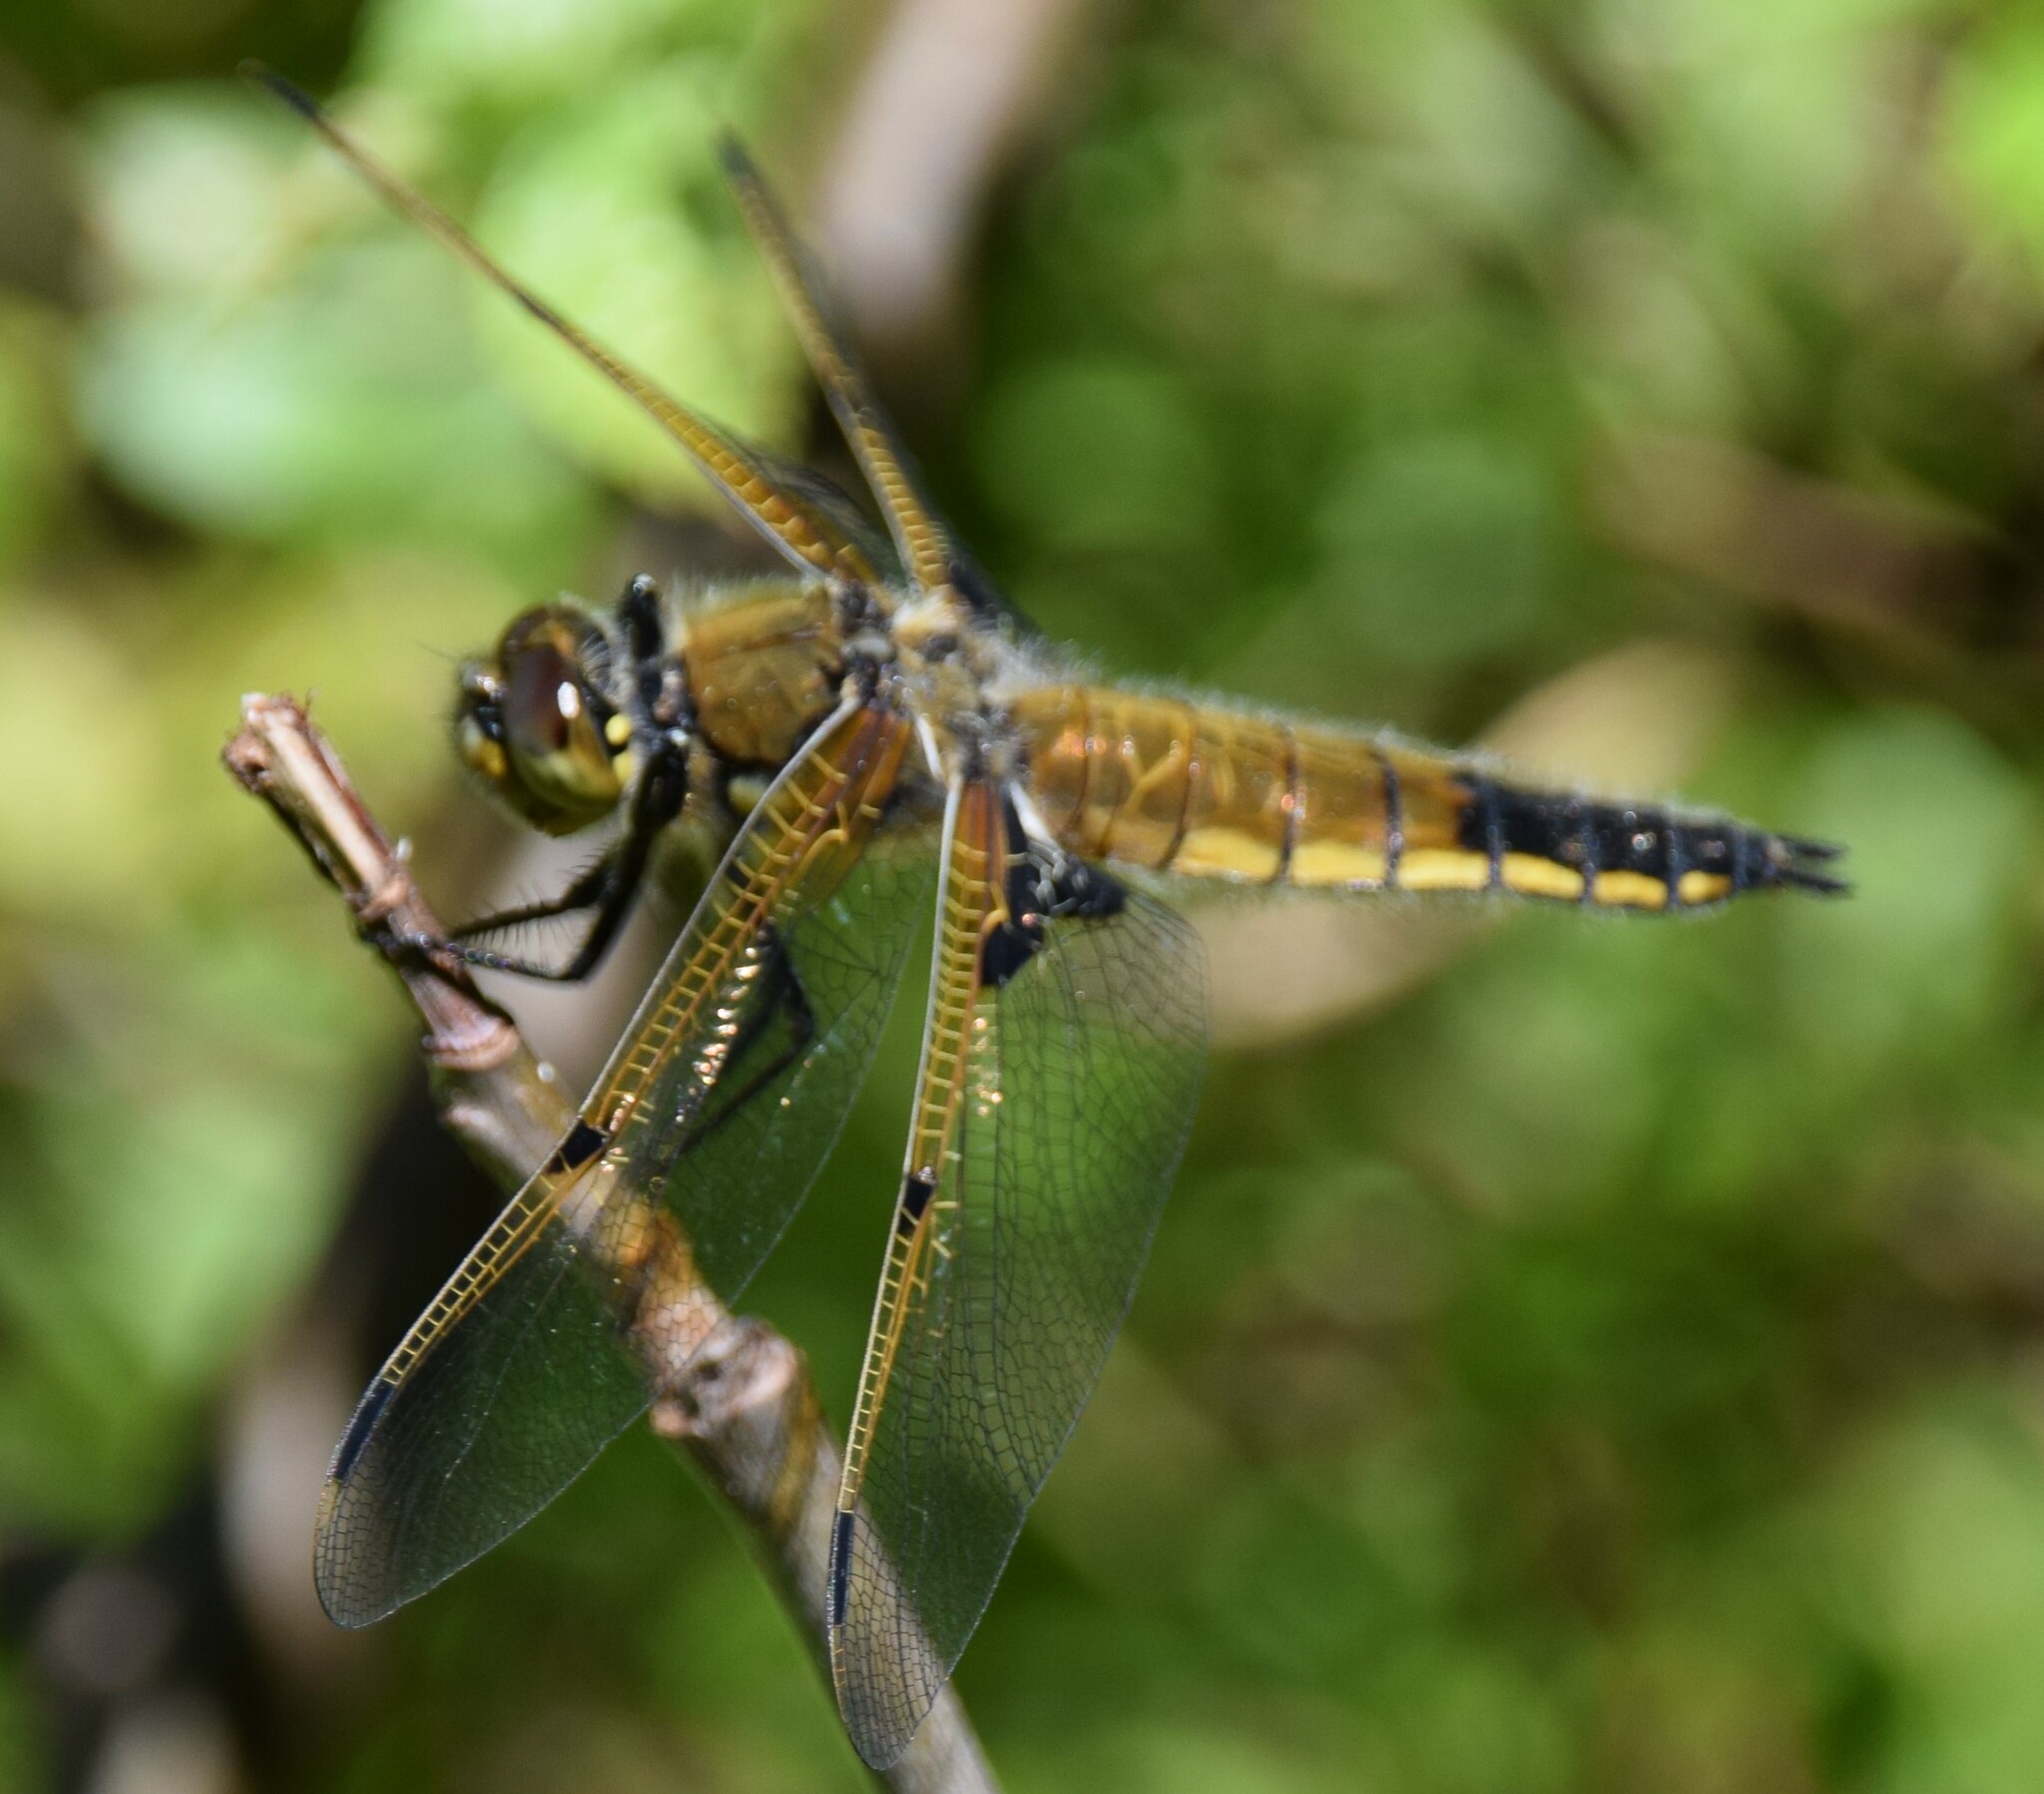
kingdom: Animalia
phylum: Arthropoda
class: Insecta
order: Odonata
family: Libellulidae
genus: Libellula
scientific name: Libellula quadrimaculata
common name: Four-spotted chaser
